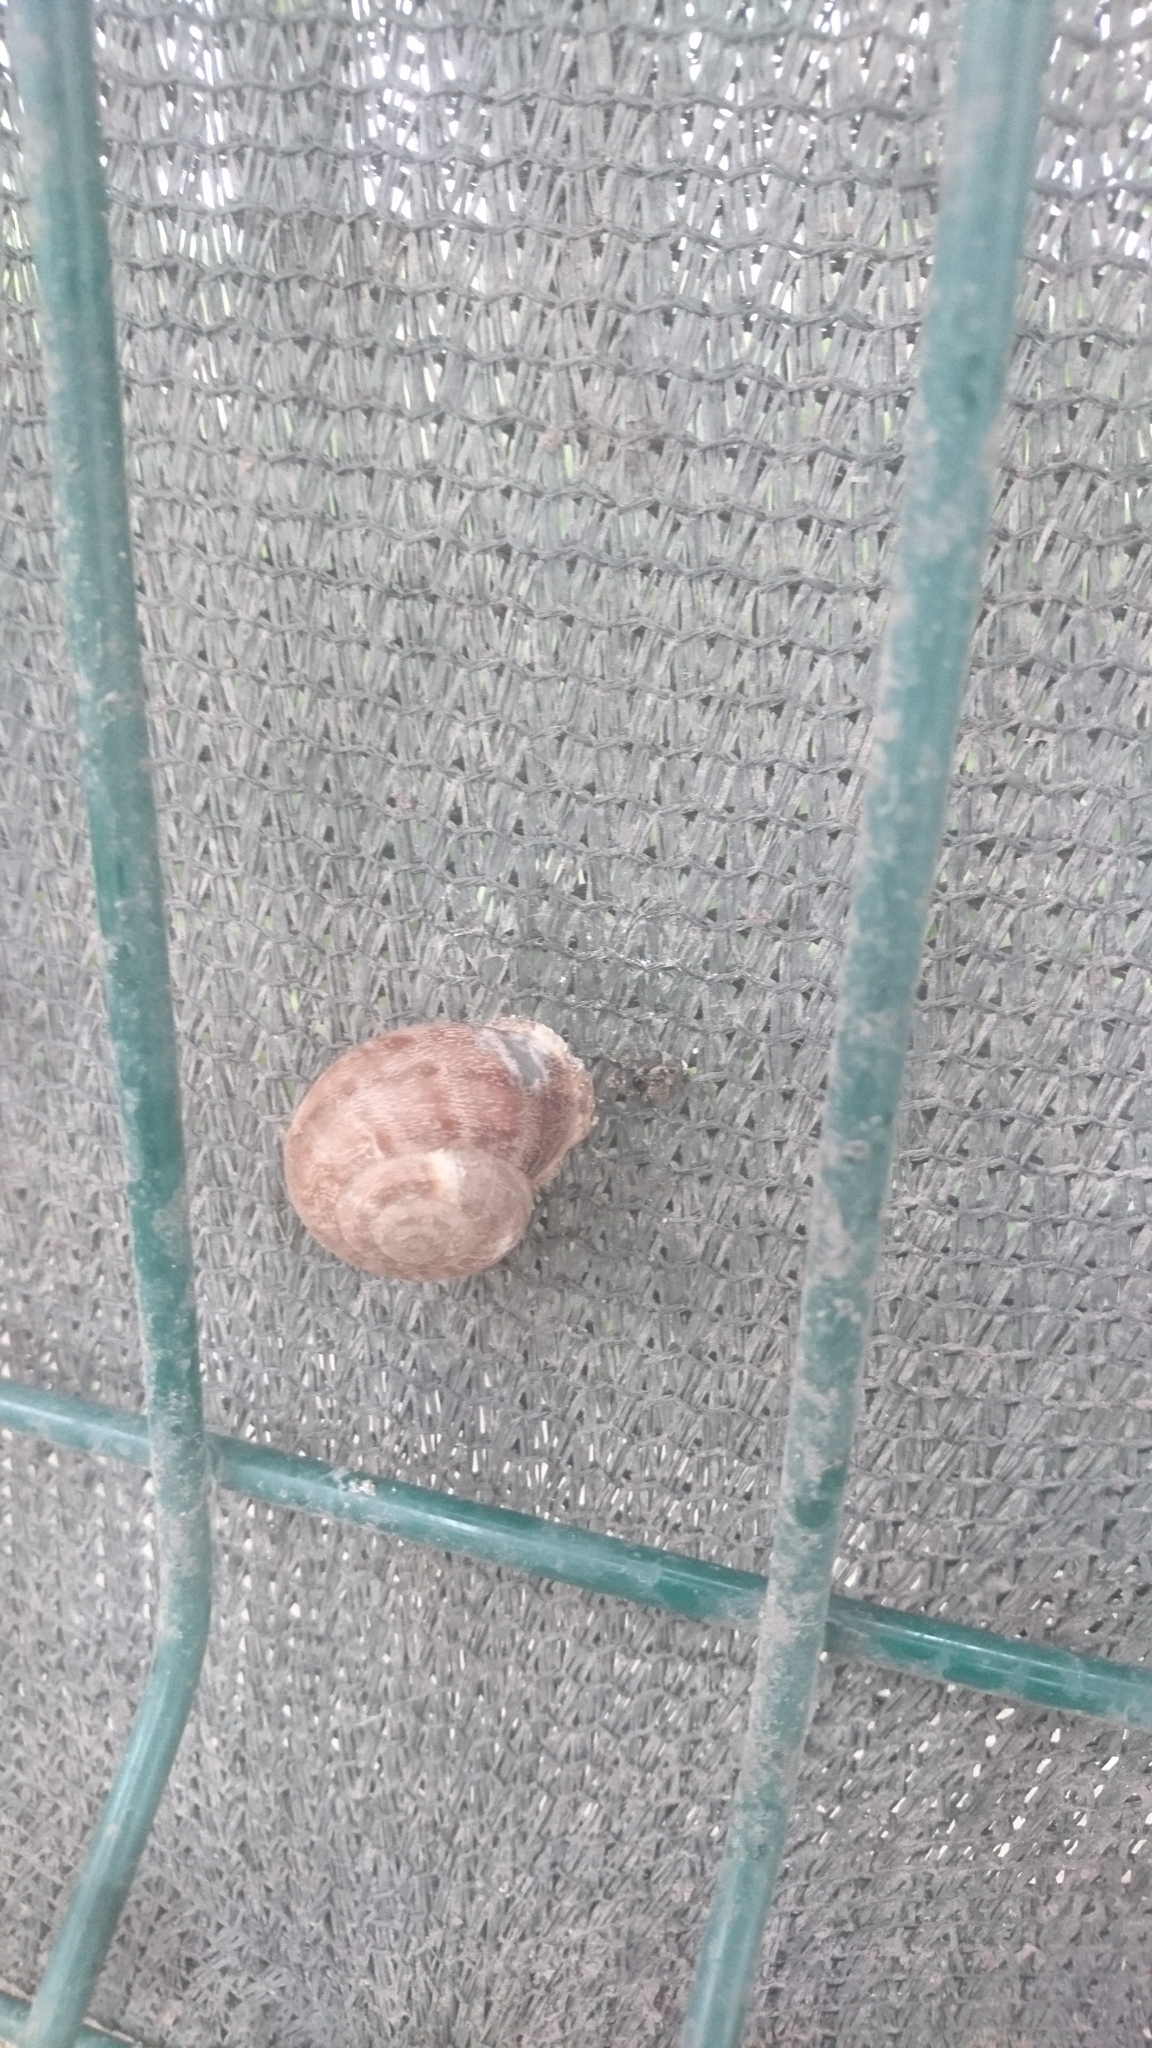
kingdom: Animalia
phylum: Mollusca
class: Gastropoda
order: Stylommatophora
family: Helicidae
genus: Eobania
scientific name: Eobania vermiculata
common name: Chocolateband snail
